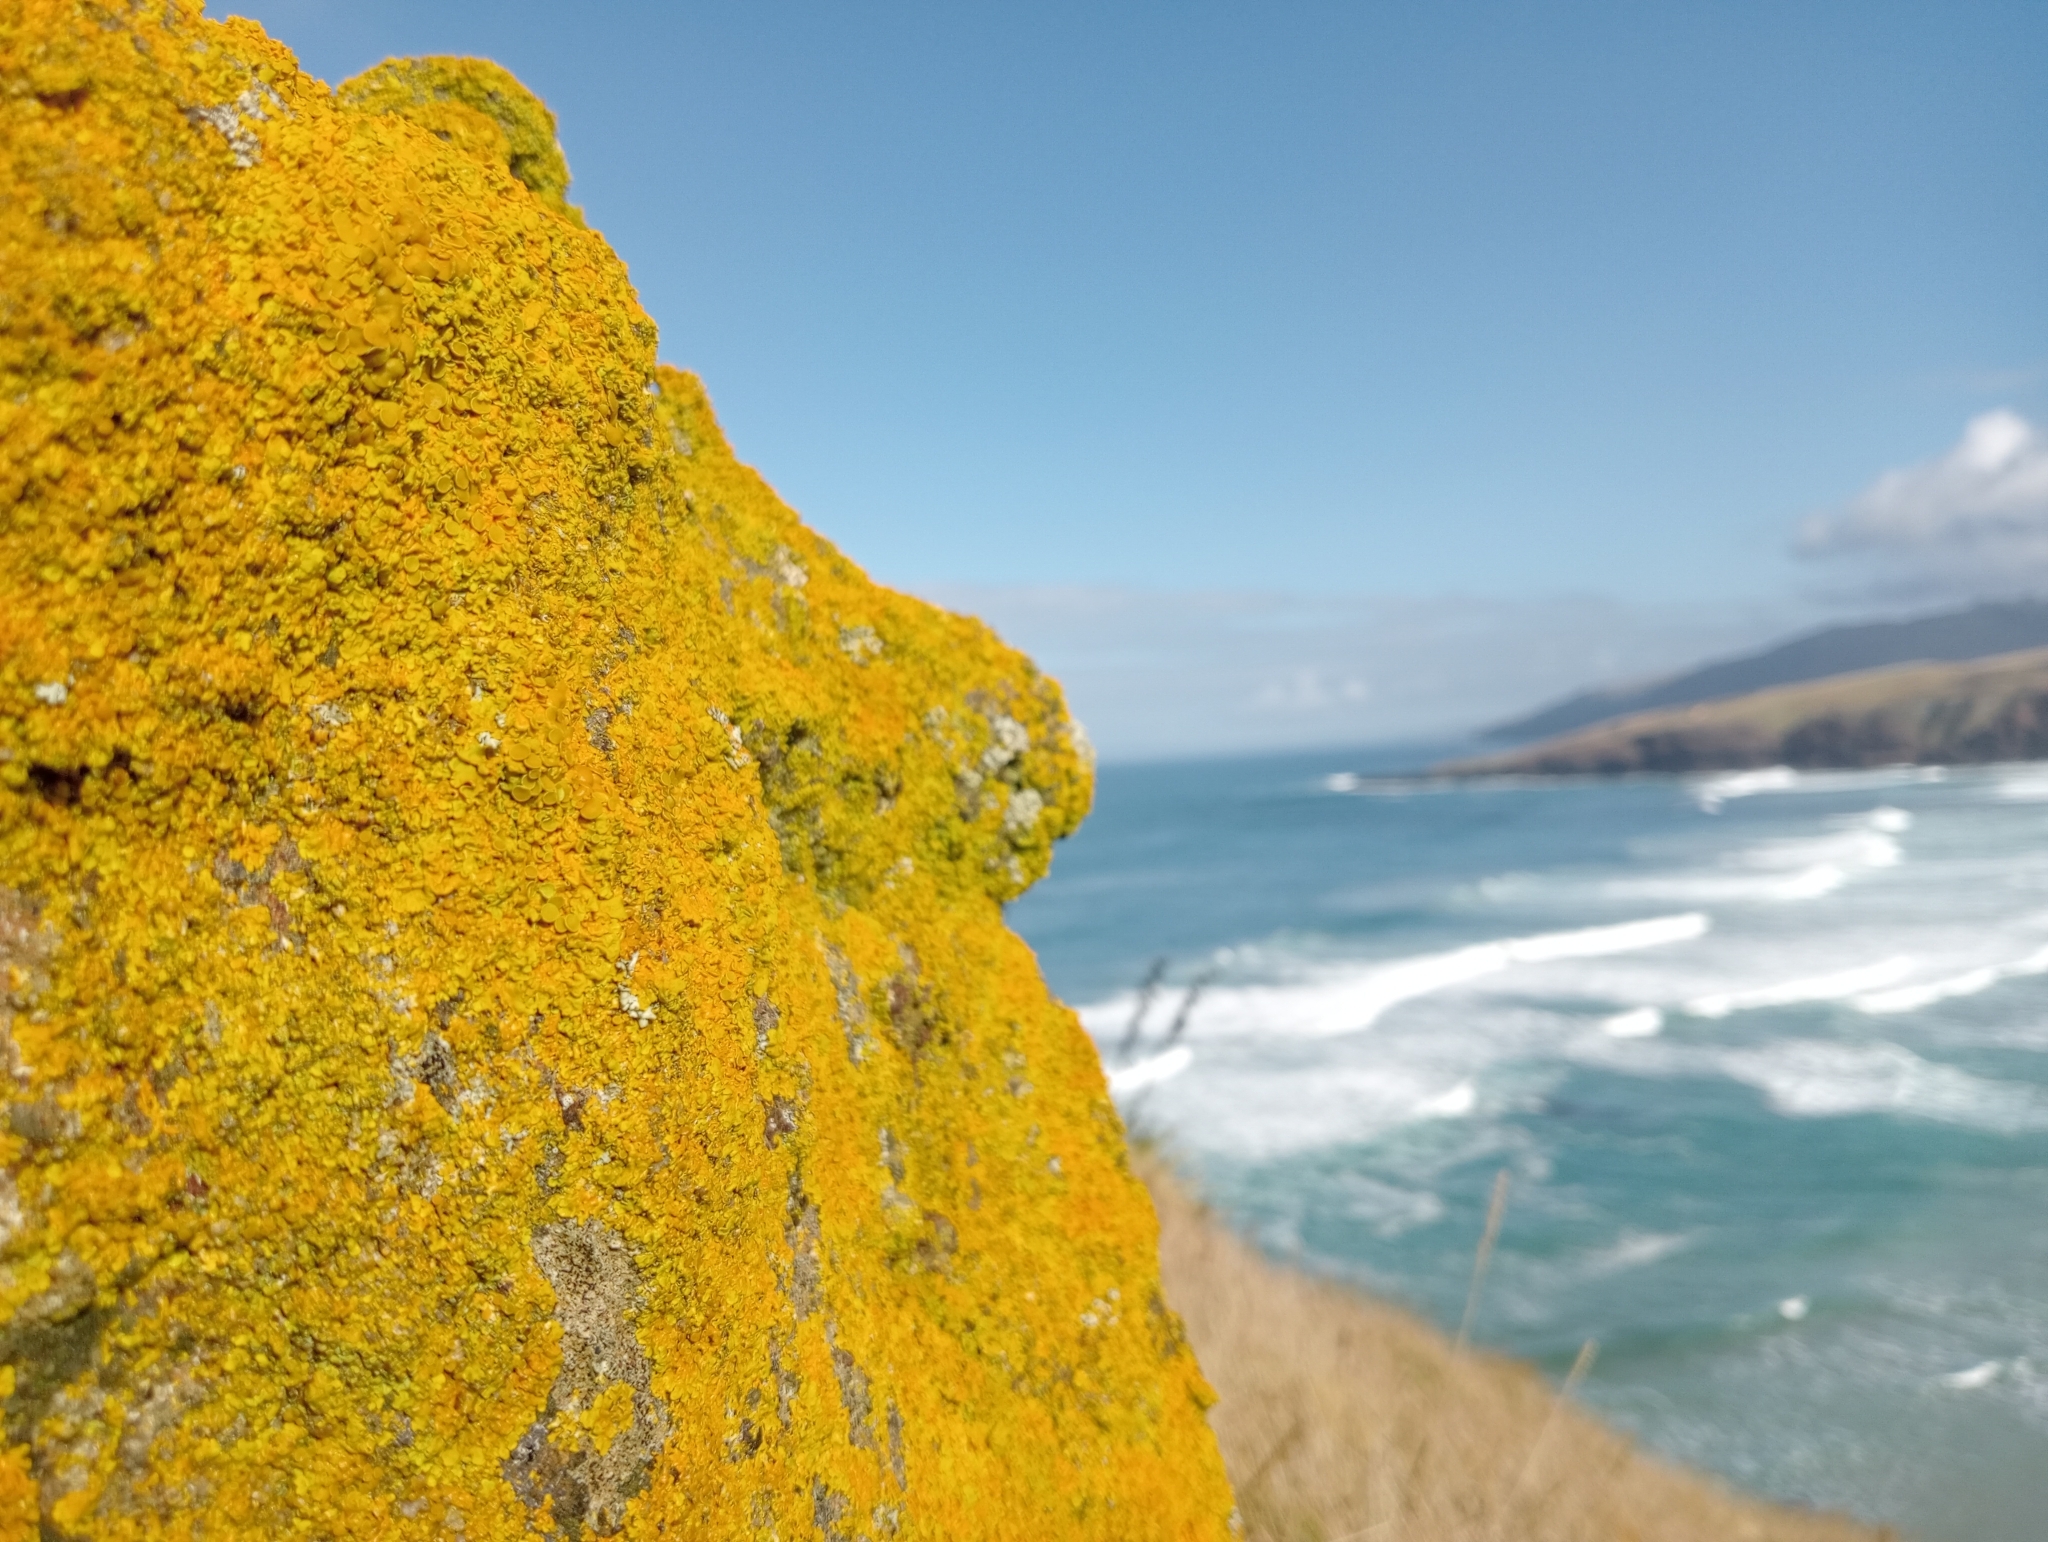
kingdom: Fungi
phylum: Ascomycota
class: Lecanoromycetes
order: Teloschistales
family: Teloschistaceae
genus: Xanthoria
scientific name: Xanthoria parietina
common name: Common orange lichen
